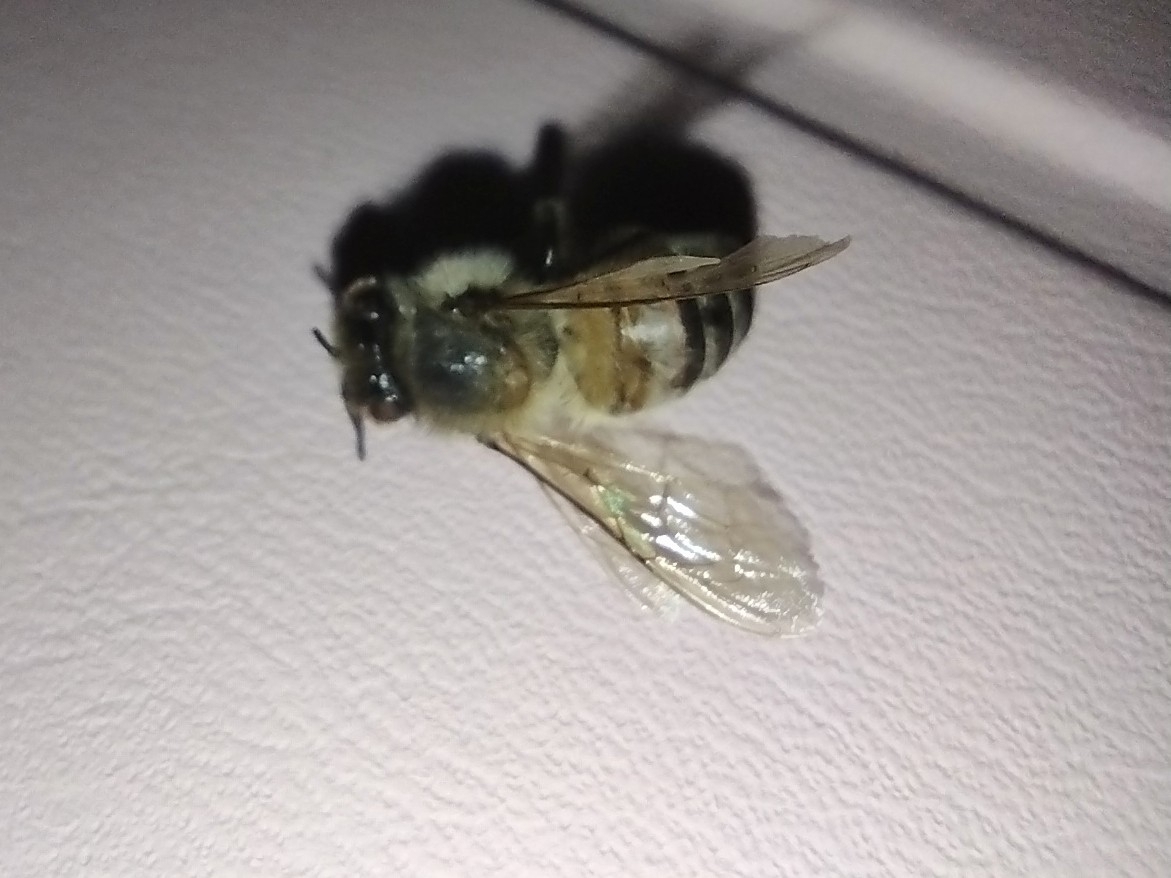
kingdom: Animalia
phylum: Arthropoda
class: Insecta
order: Hymenoptera
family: Apidae
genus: Apis
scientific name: Apis mellifera
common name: Honey bee
